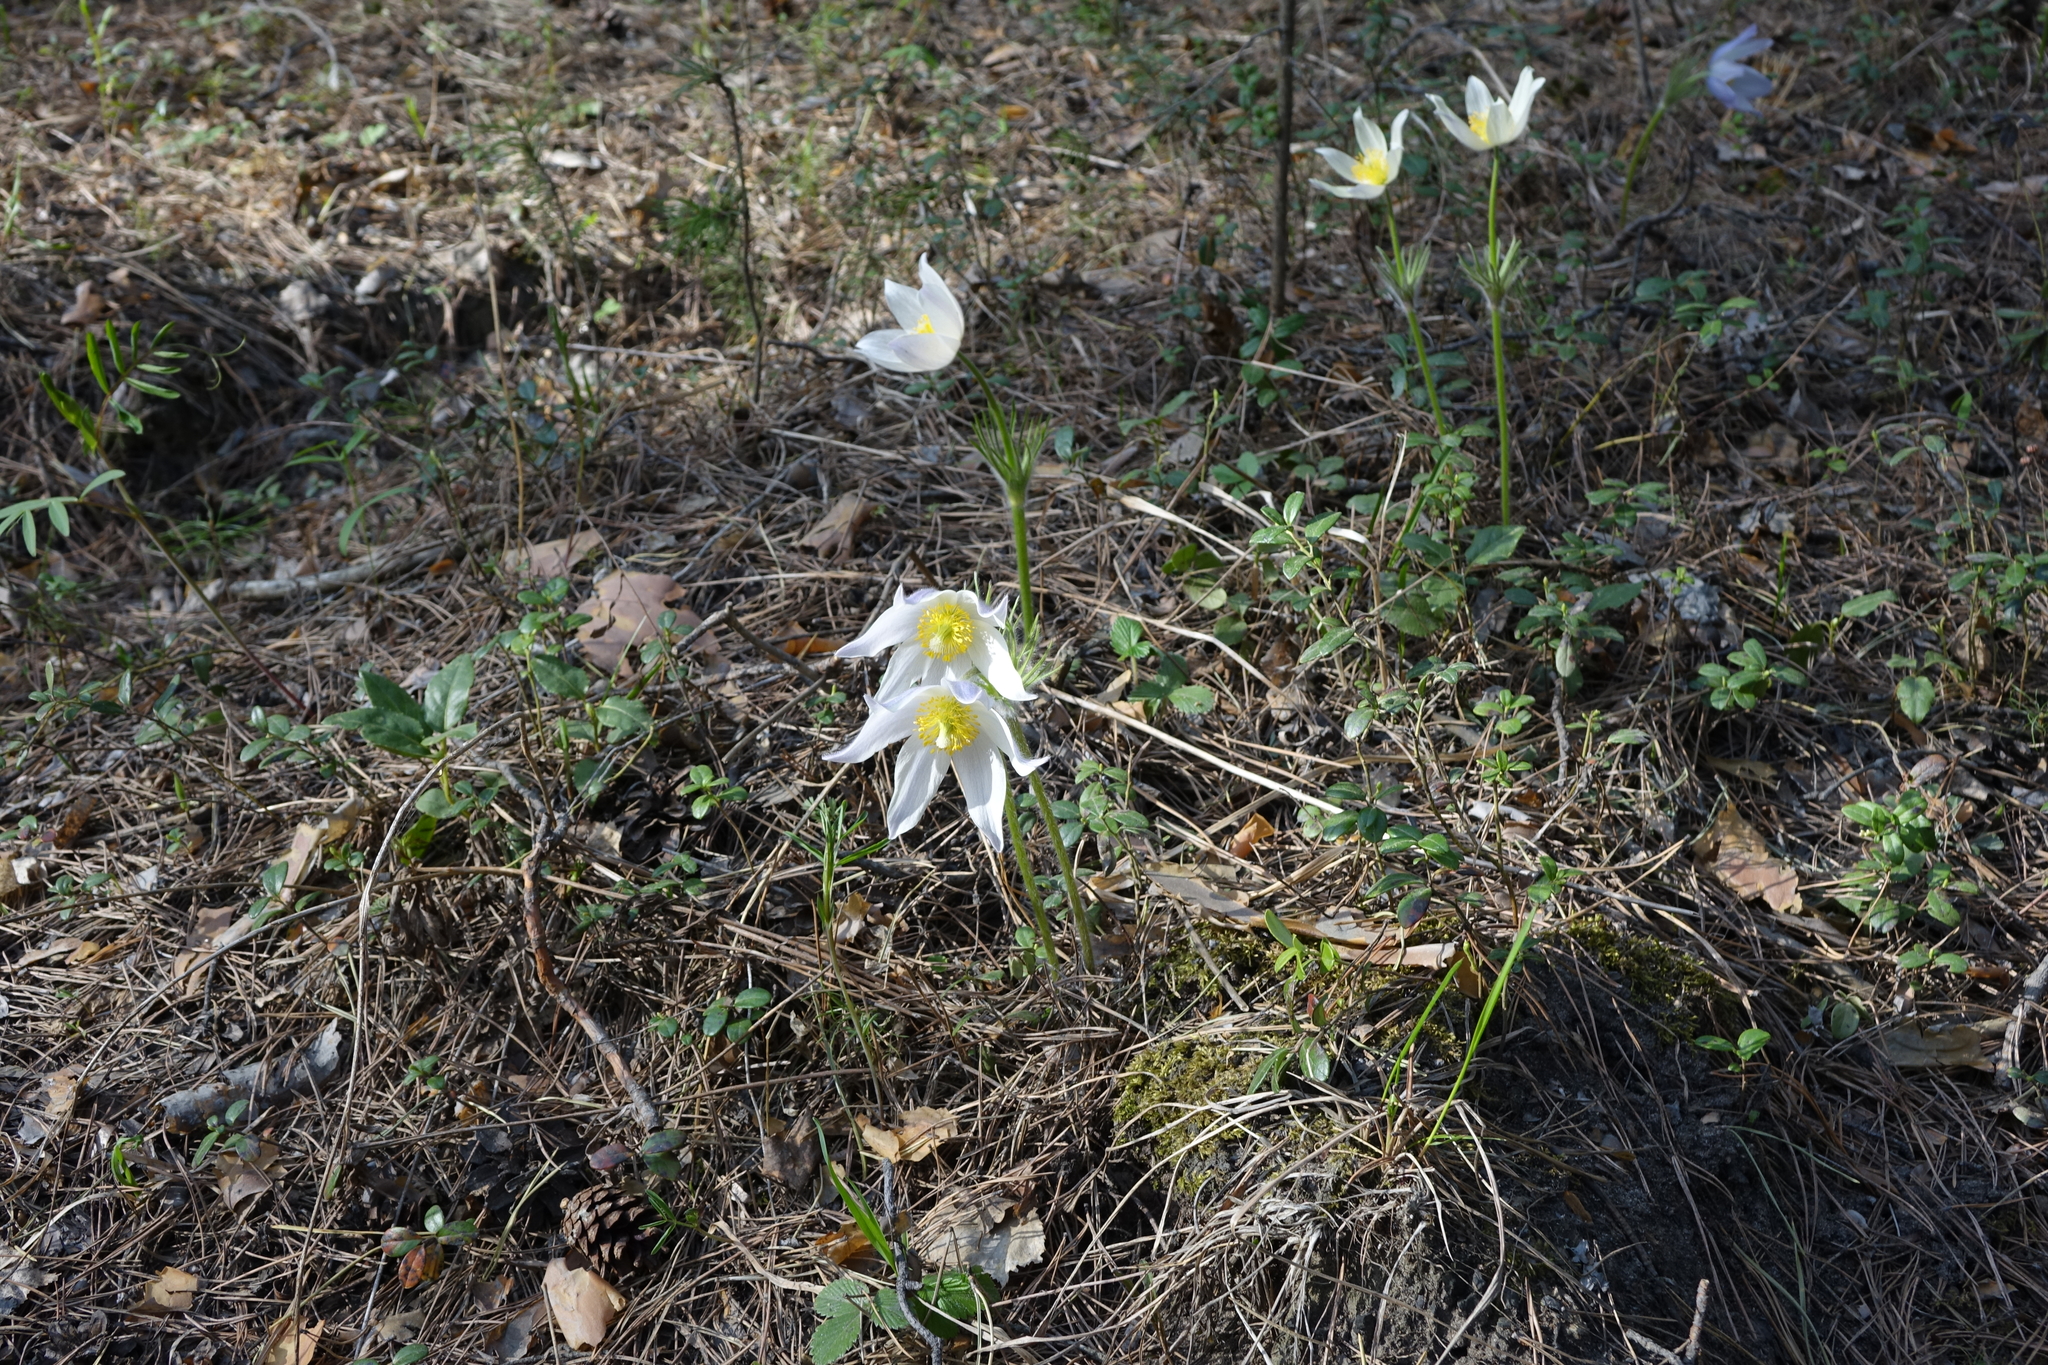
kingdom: Plantae
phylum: Tracheophyta
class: Magnoliopsida
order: Ranunculales
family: Ranunculaceae
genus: Pulsatilla
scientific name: Pulsatilla patens
